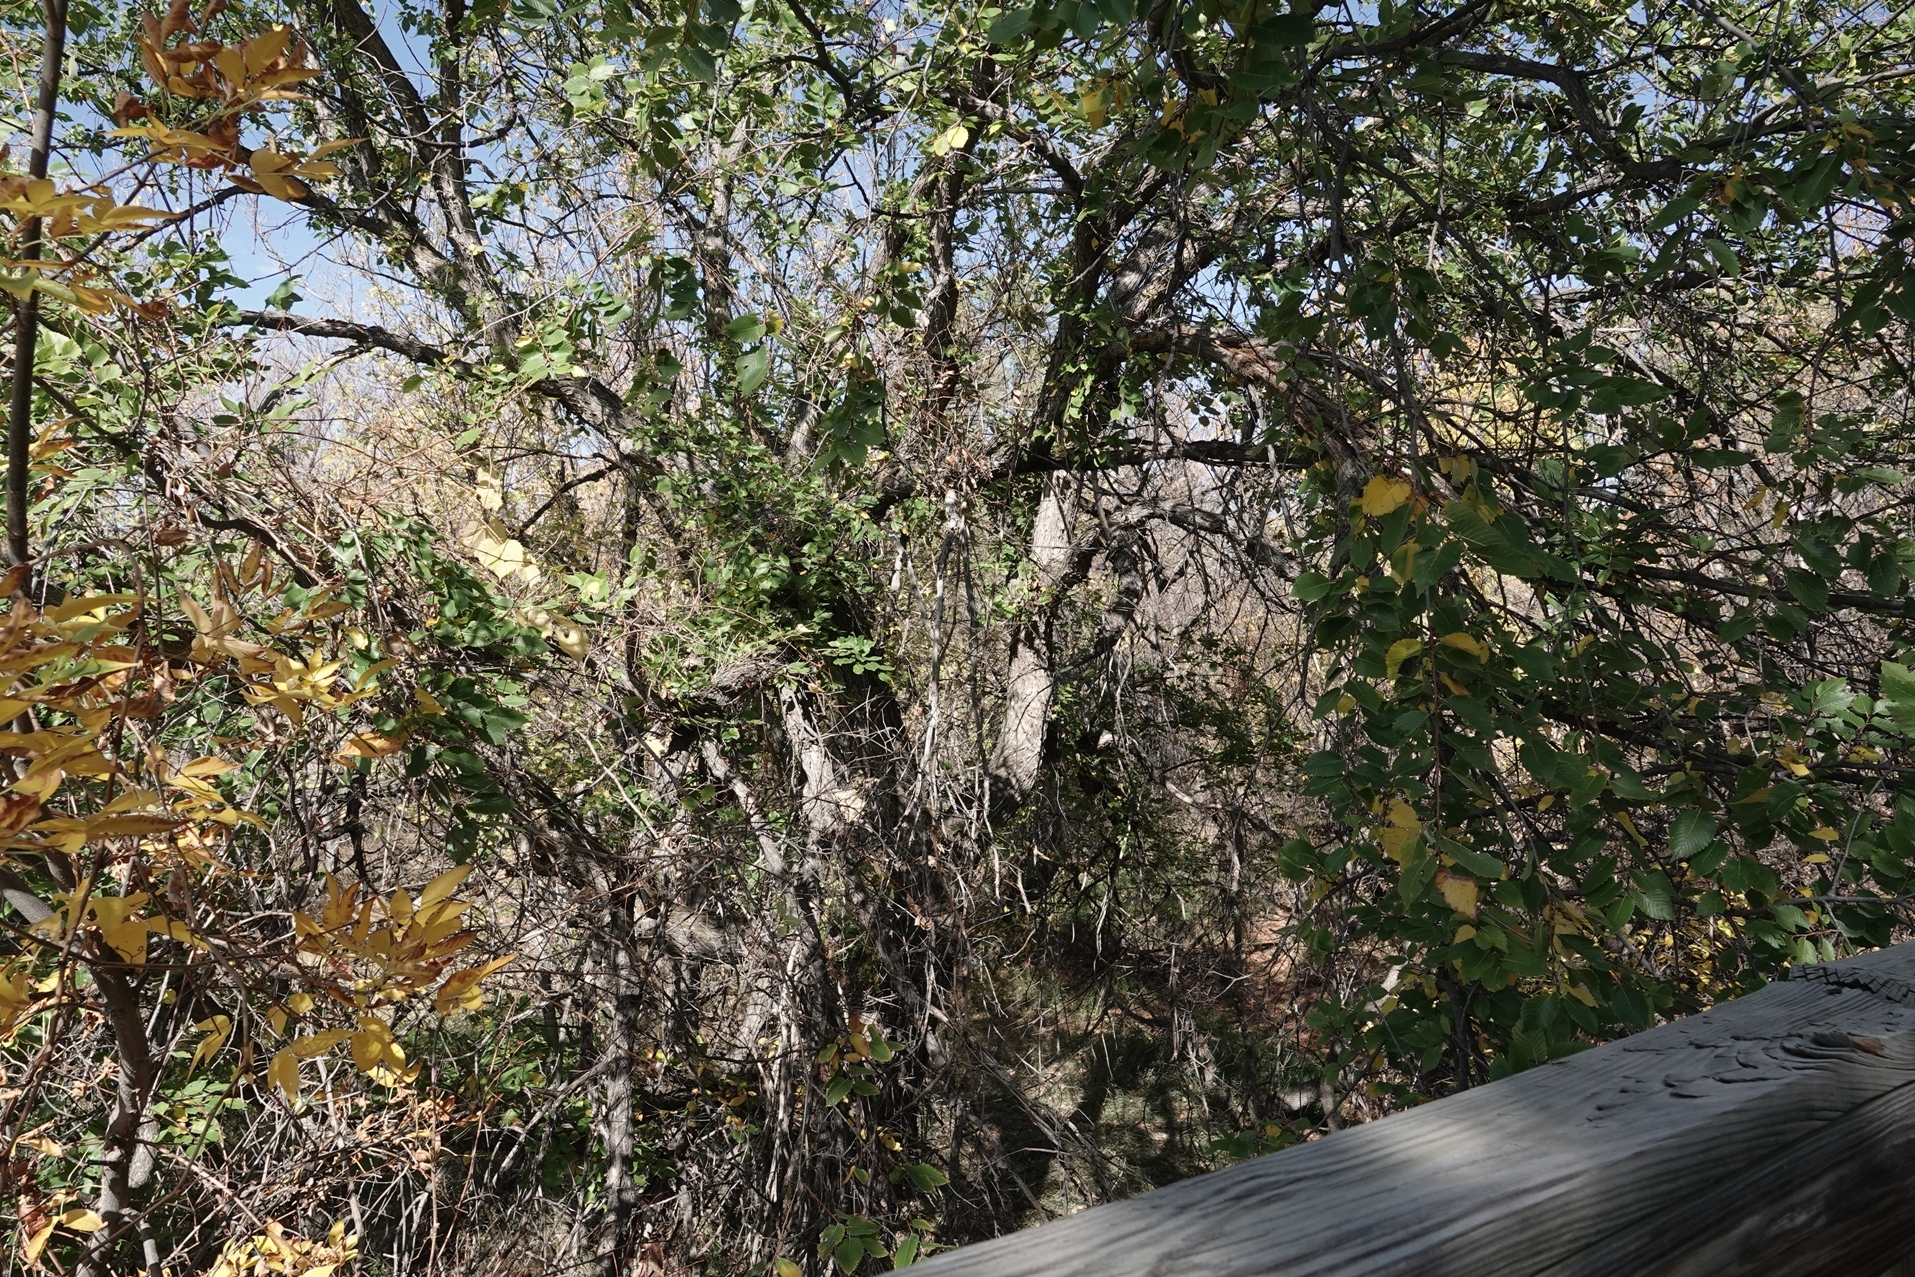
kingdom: Plantae
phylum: Tracheophyta
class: Magnoliopsida
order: Rosales
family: Ulmaceae
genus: Ulmus
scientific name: Ulmus americana
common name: American elm
